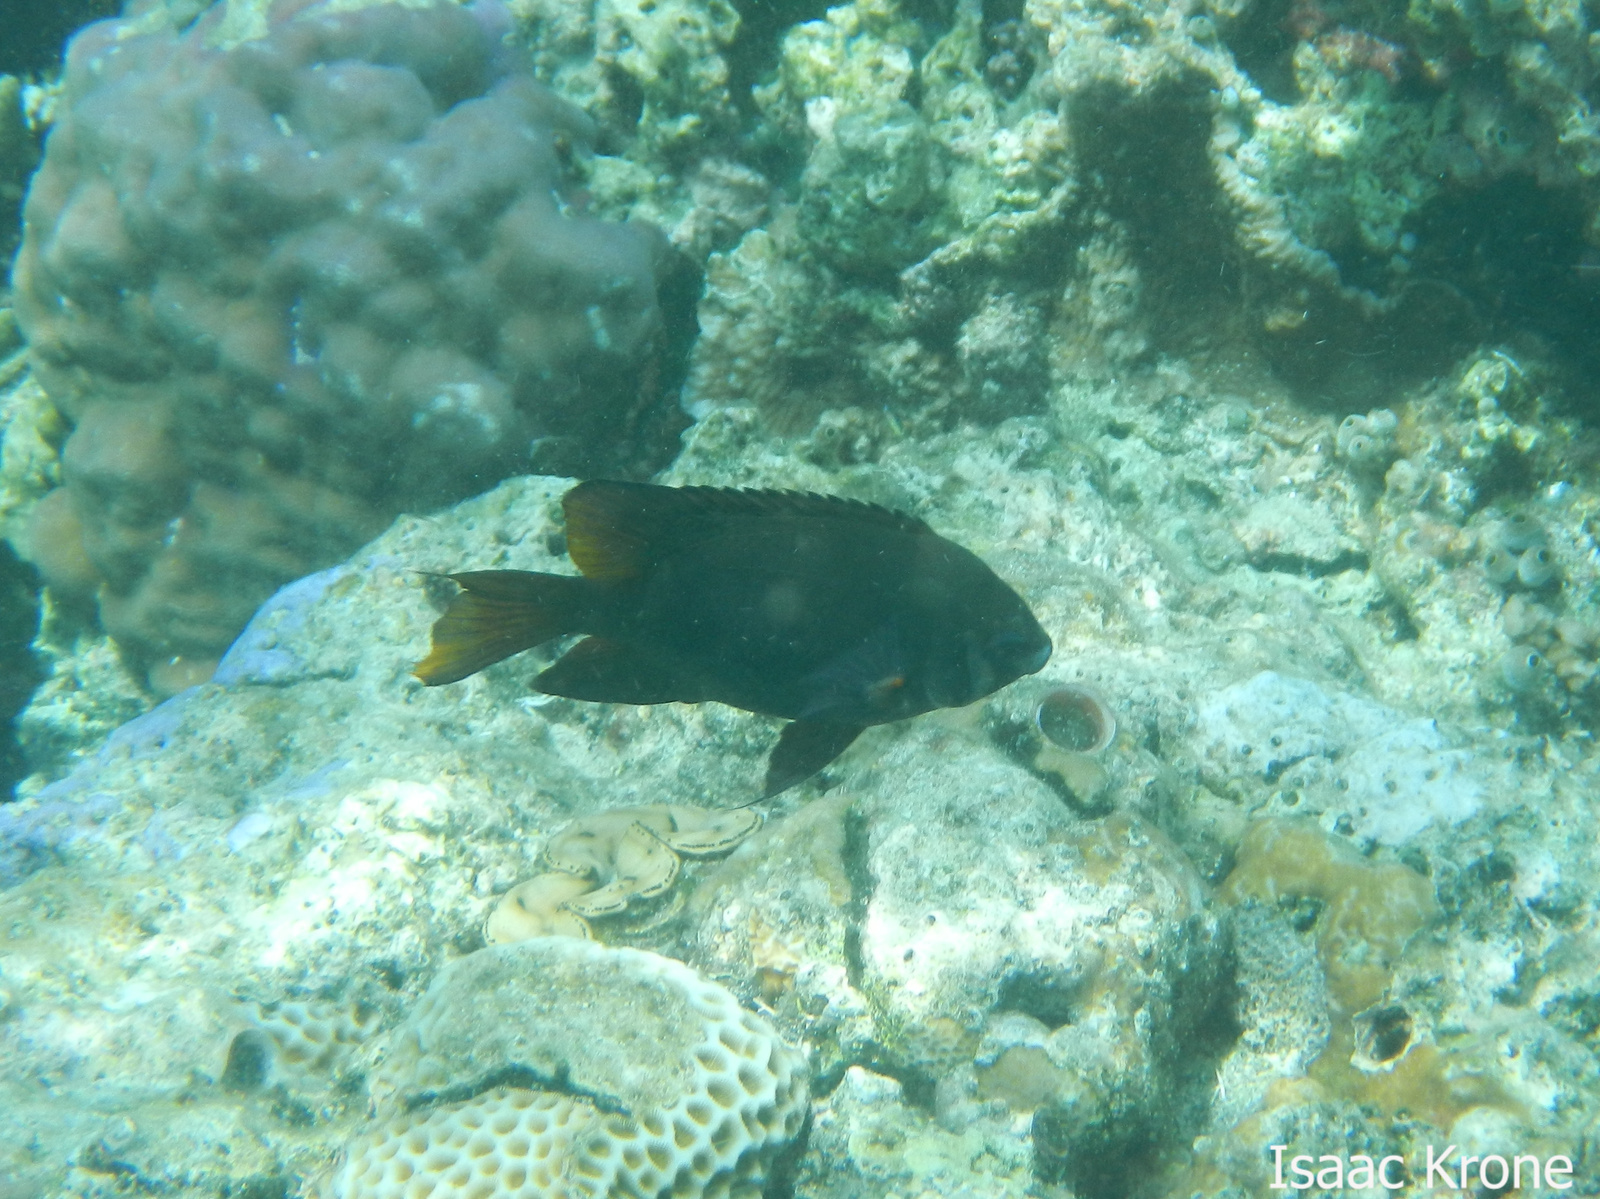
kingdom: Animalia
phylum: Chordata
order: Perciformes
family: Pomacentridae
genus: Neoglyphidodon
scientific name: Neoglyphidodon nigroris
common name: Behn's damsel
